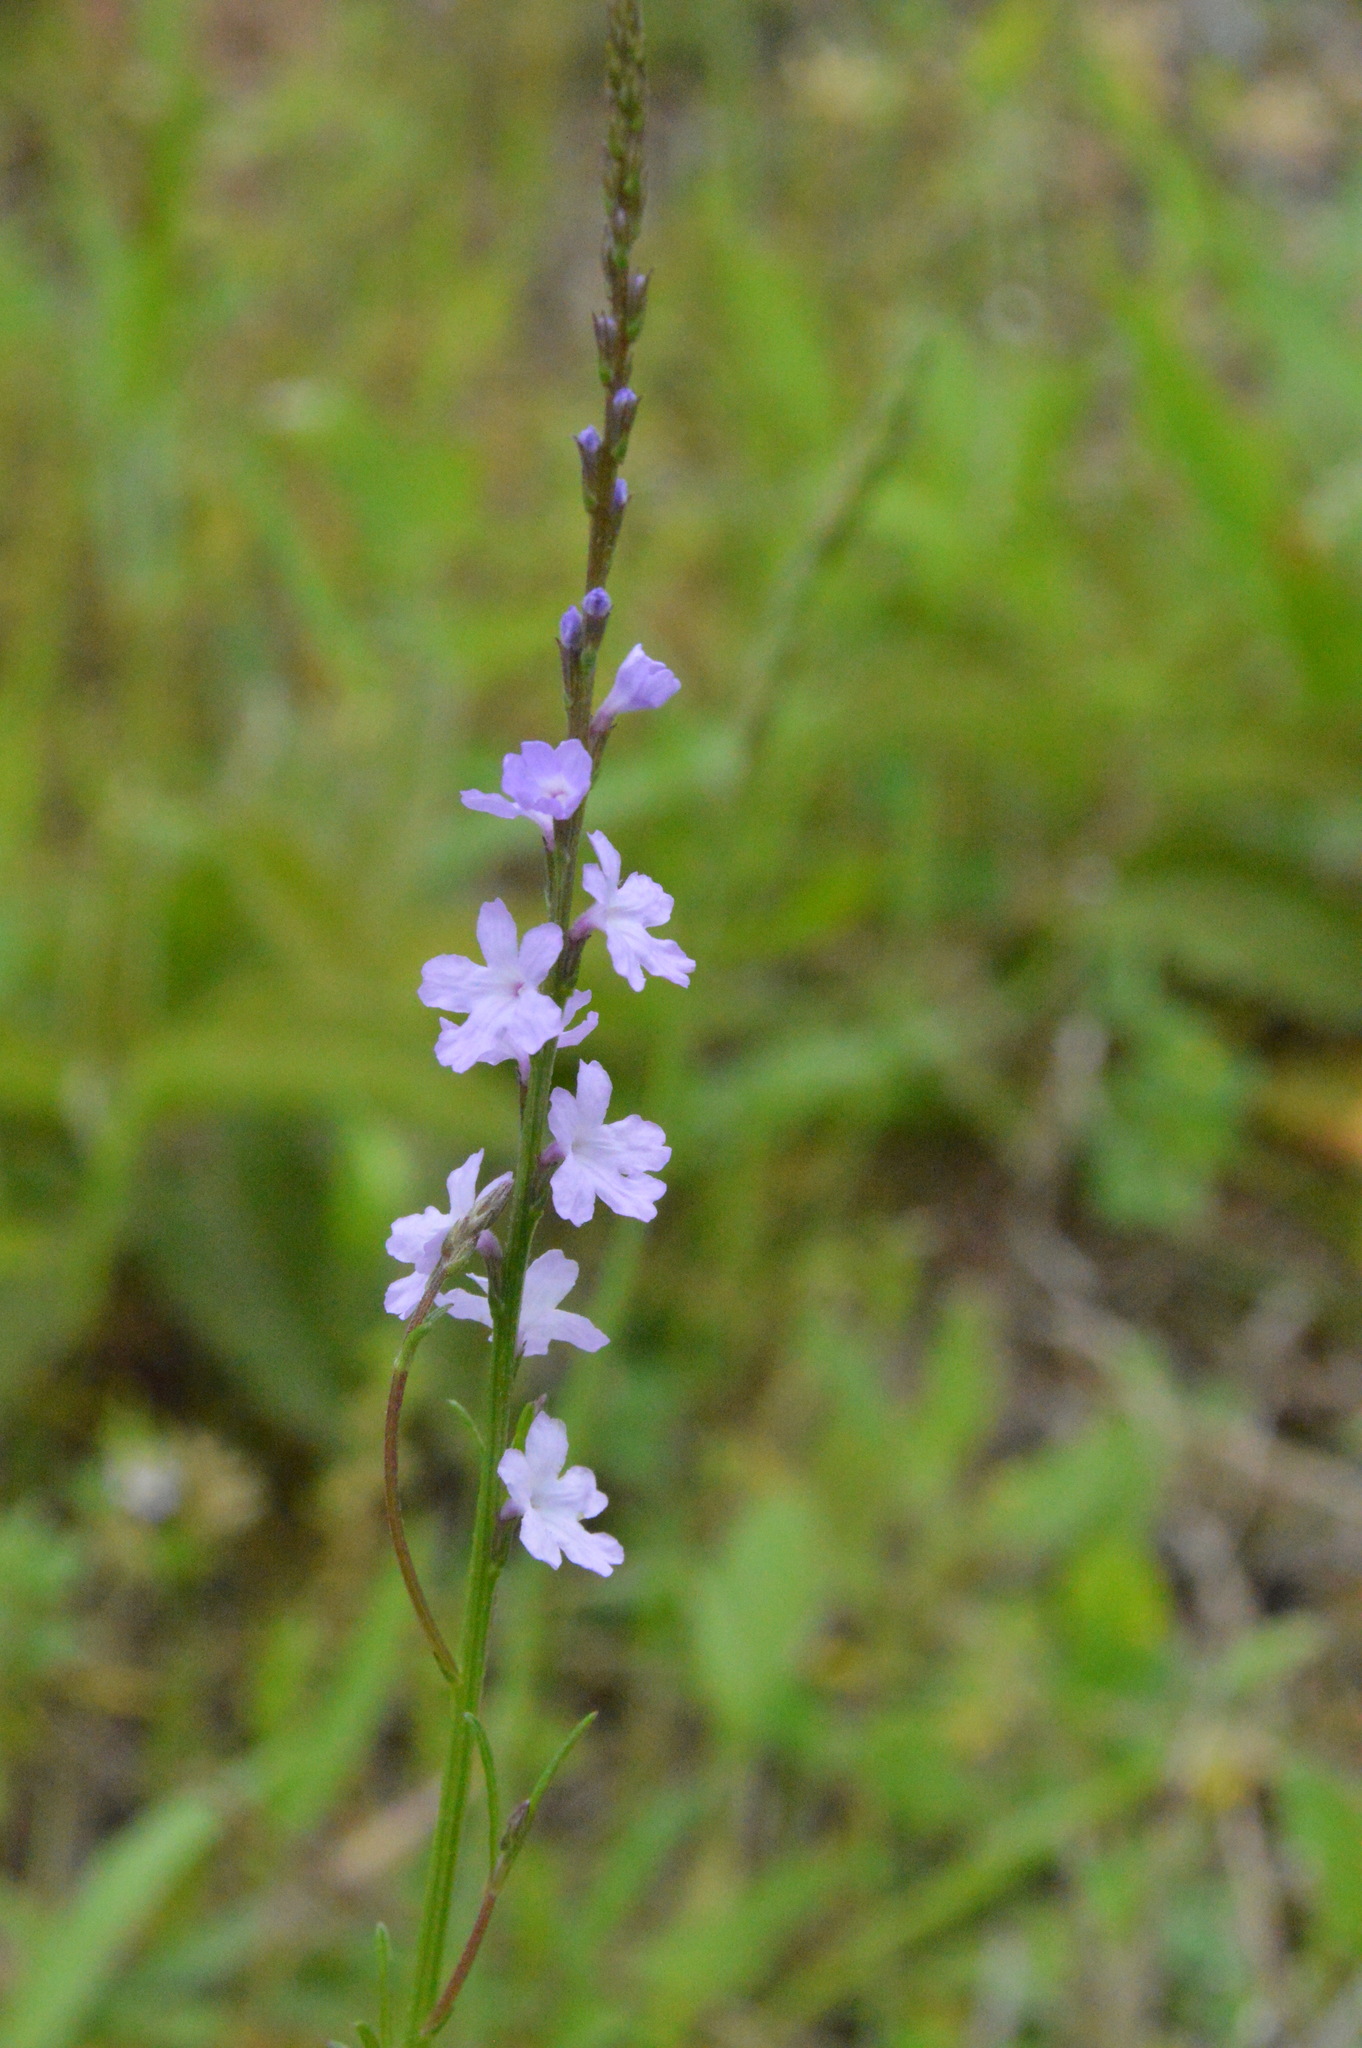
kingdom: Plantae
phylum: Tracheophyta
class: Magnoliopsida
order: Lamiales
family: Verbenaceae
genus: Verbena
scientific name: Verbena halei
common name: Texas vervain
